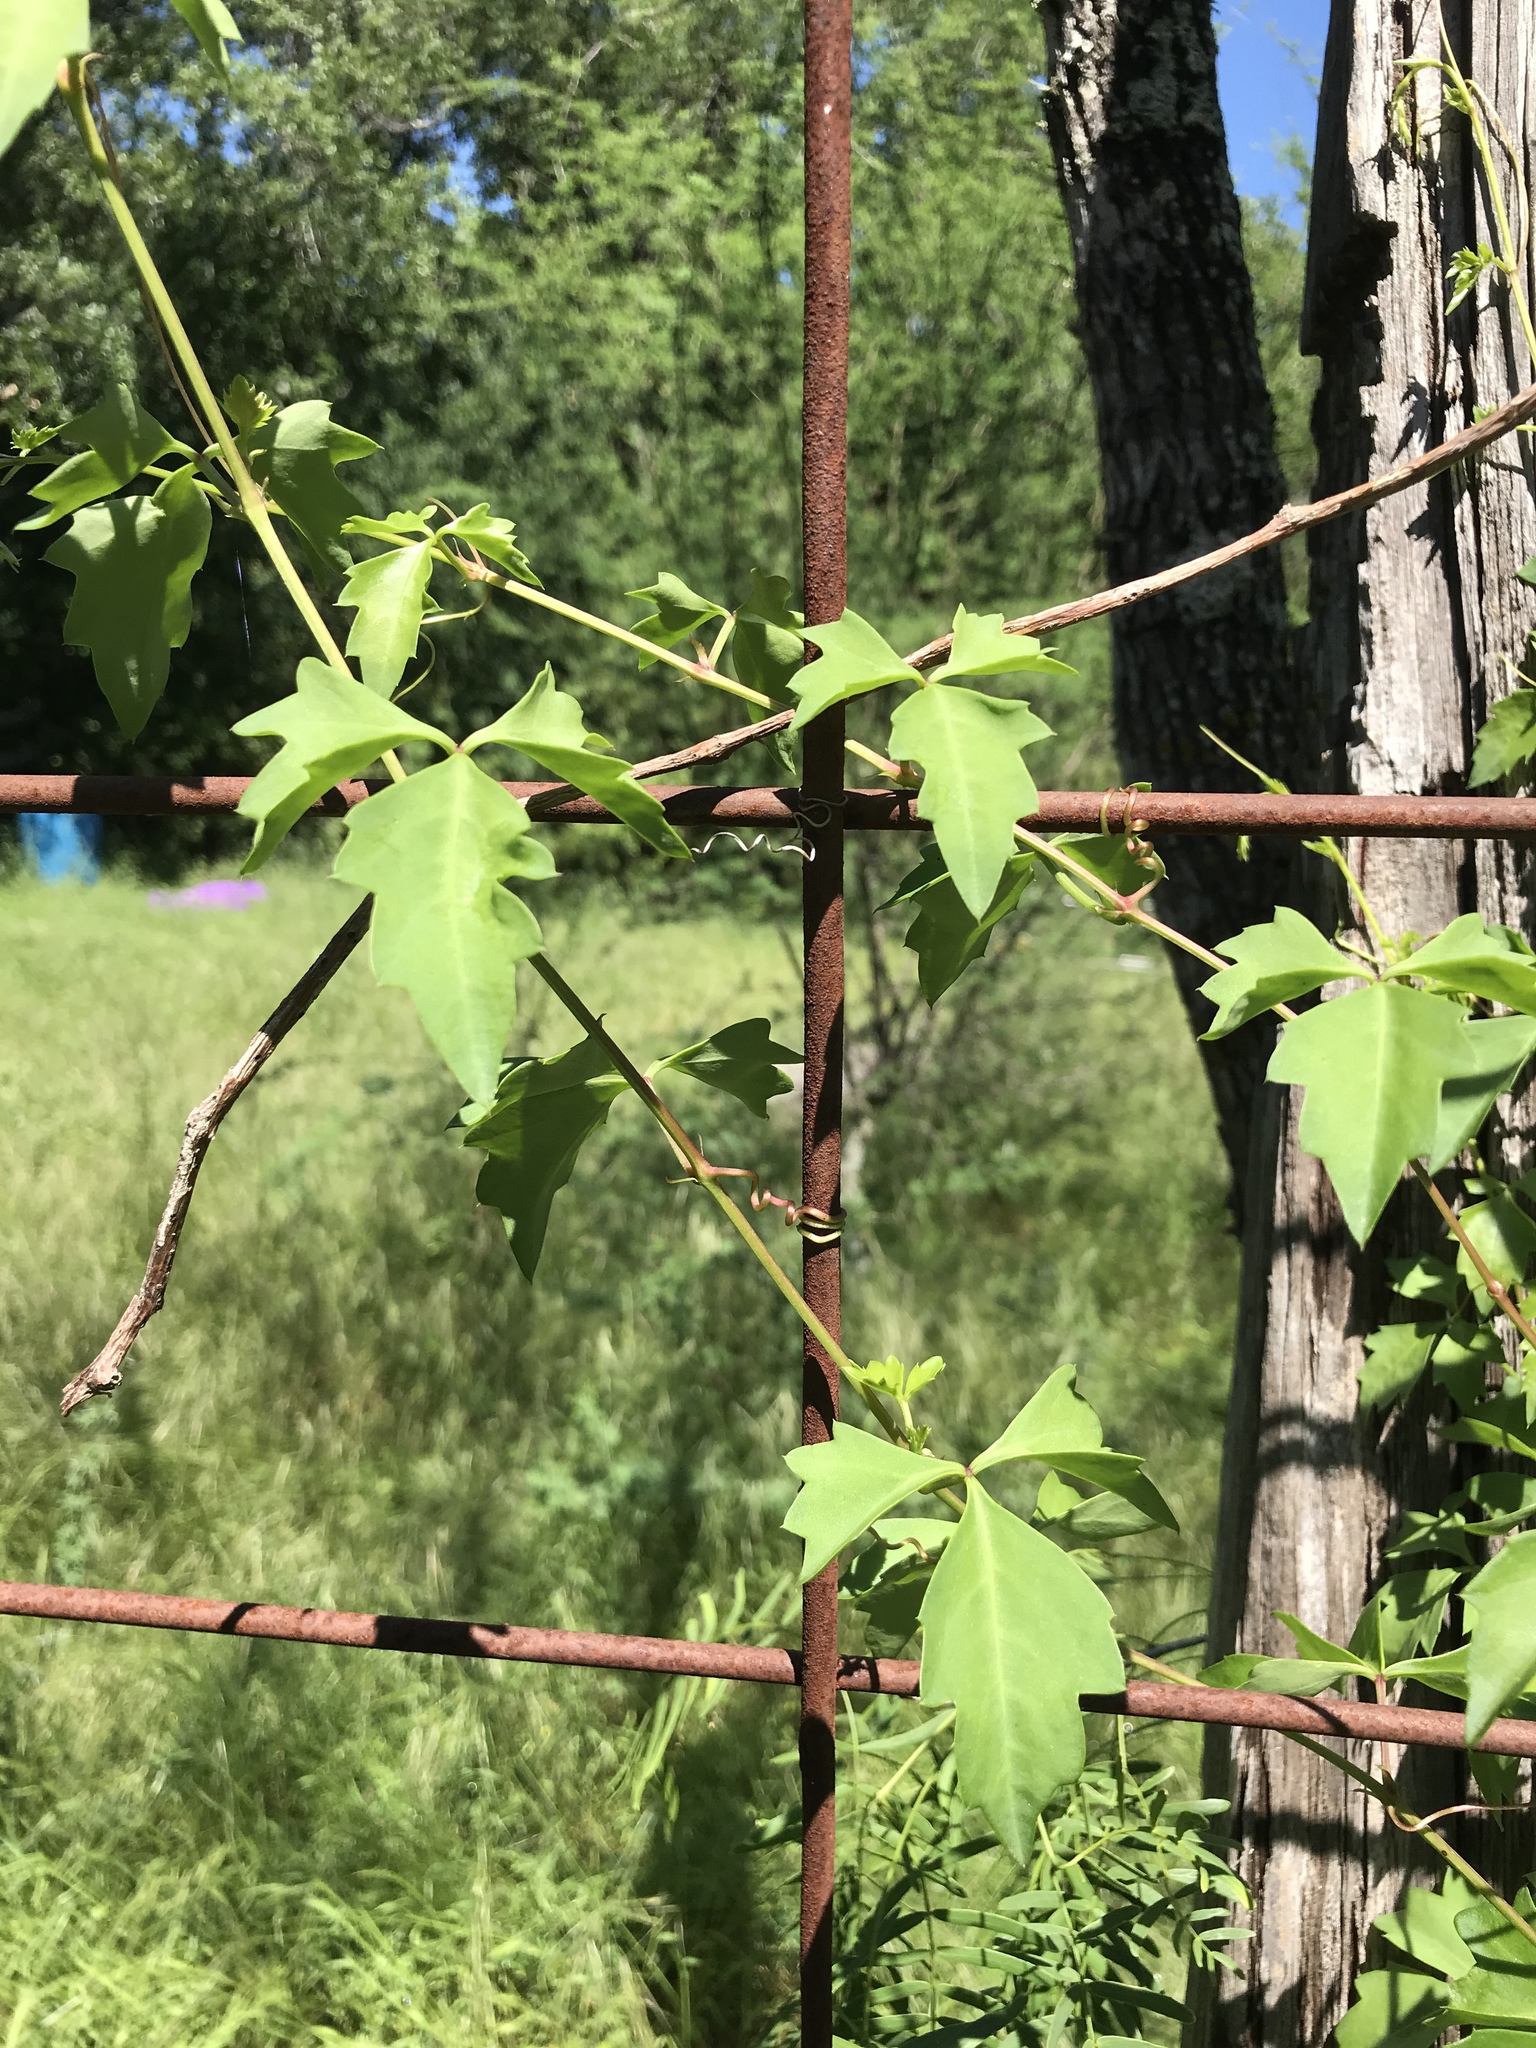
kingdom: Plantae
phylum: Tracheophyta
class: Magnoliopsida
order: Vitales
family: Vitaceae
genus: Cissus
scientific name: Cissus trifoliata
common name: Vine-sorrel
